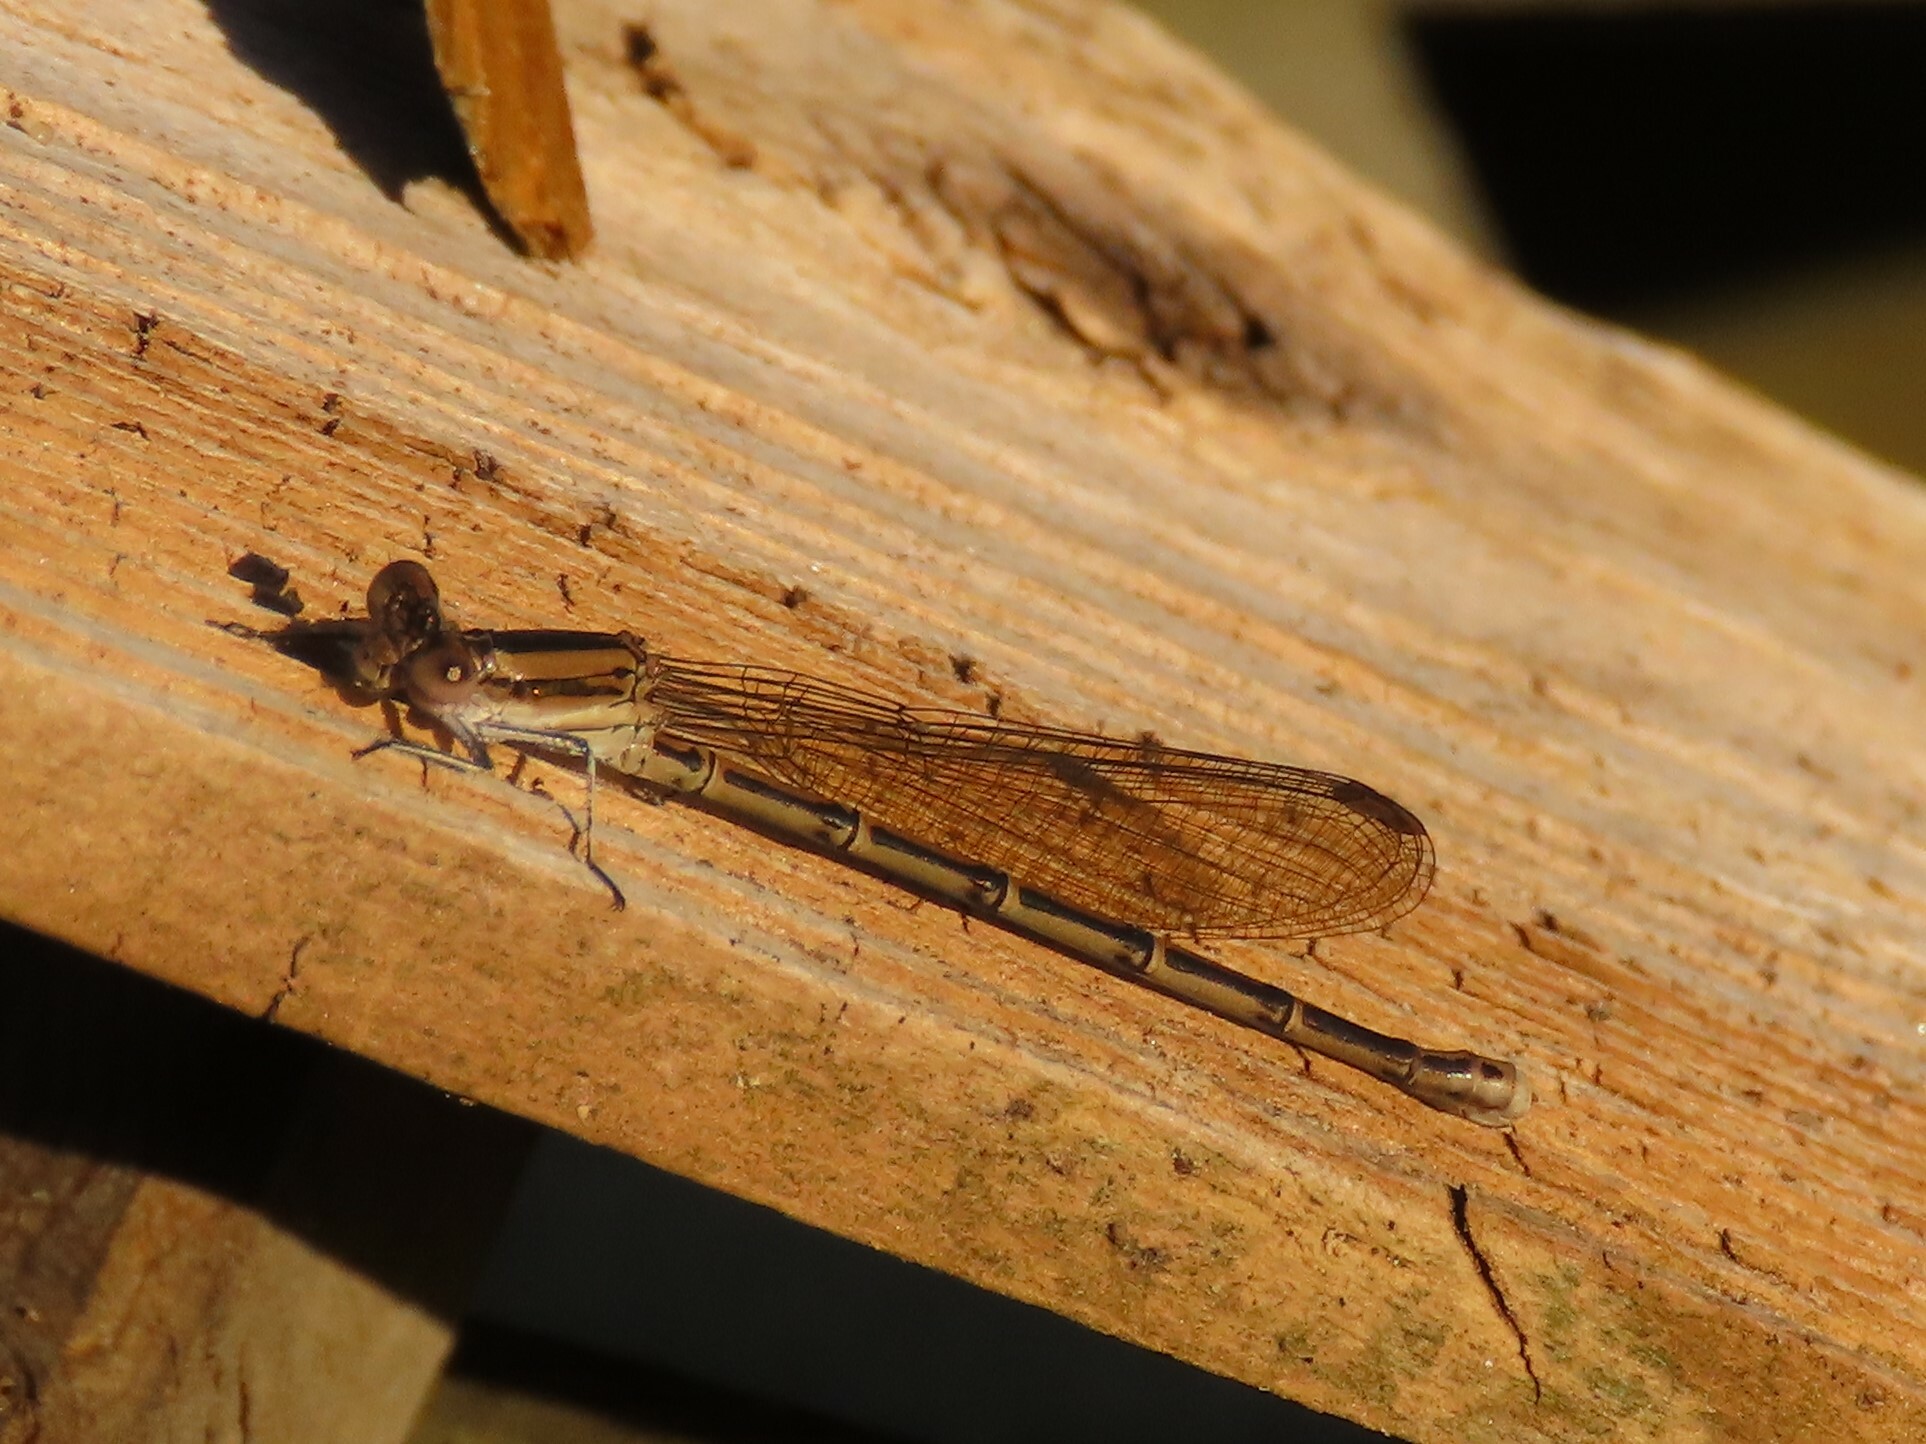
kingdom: Animalia
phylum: Arthropoda
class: Insecta
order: Odonata
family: Coenagrionidae
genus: Argia
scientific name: Argia fumipennis
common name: Variable dancer
